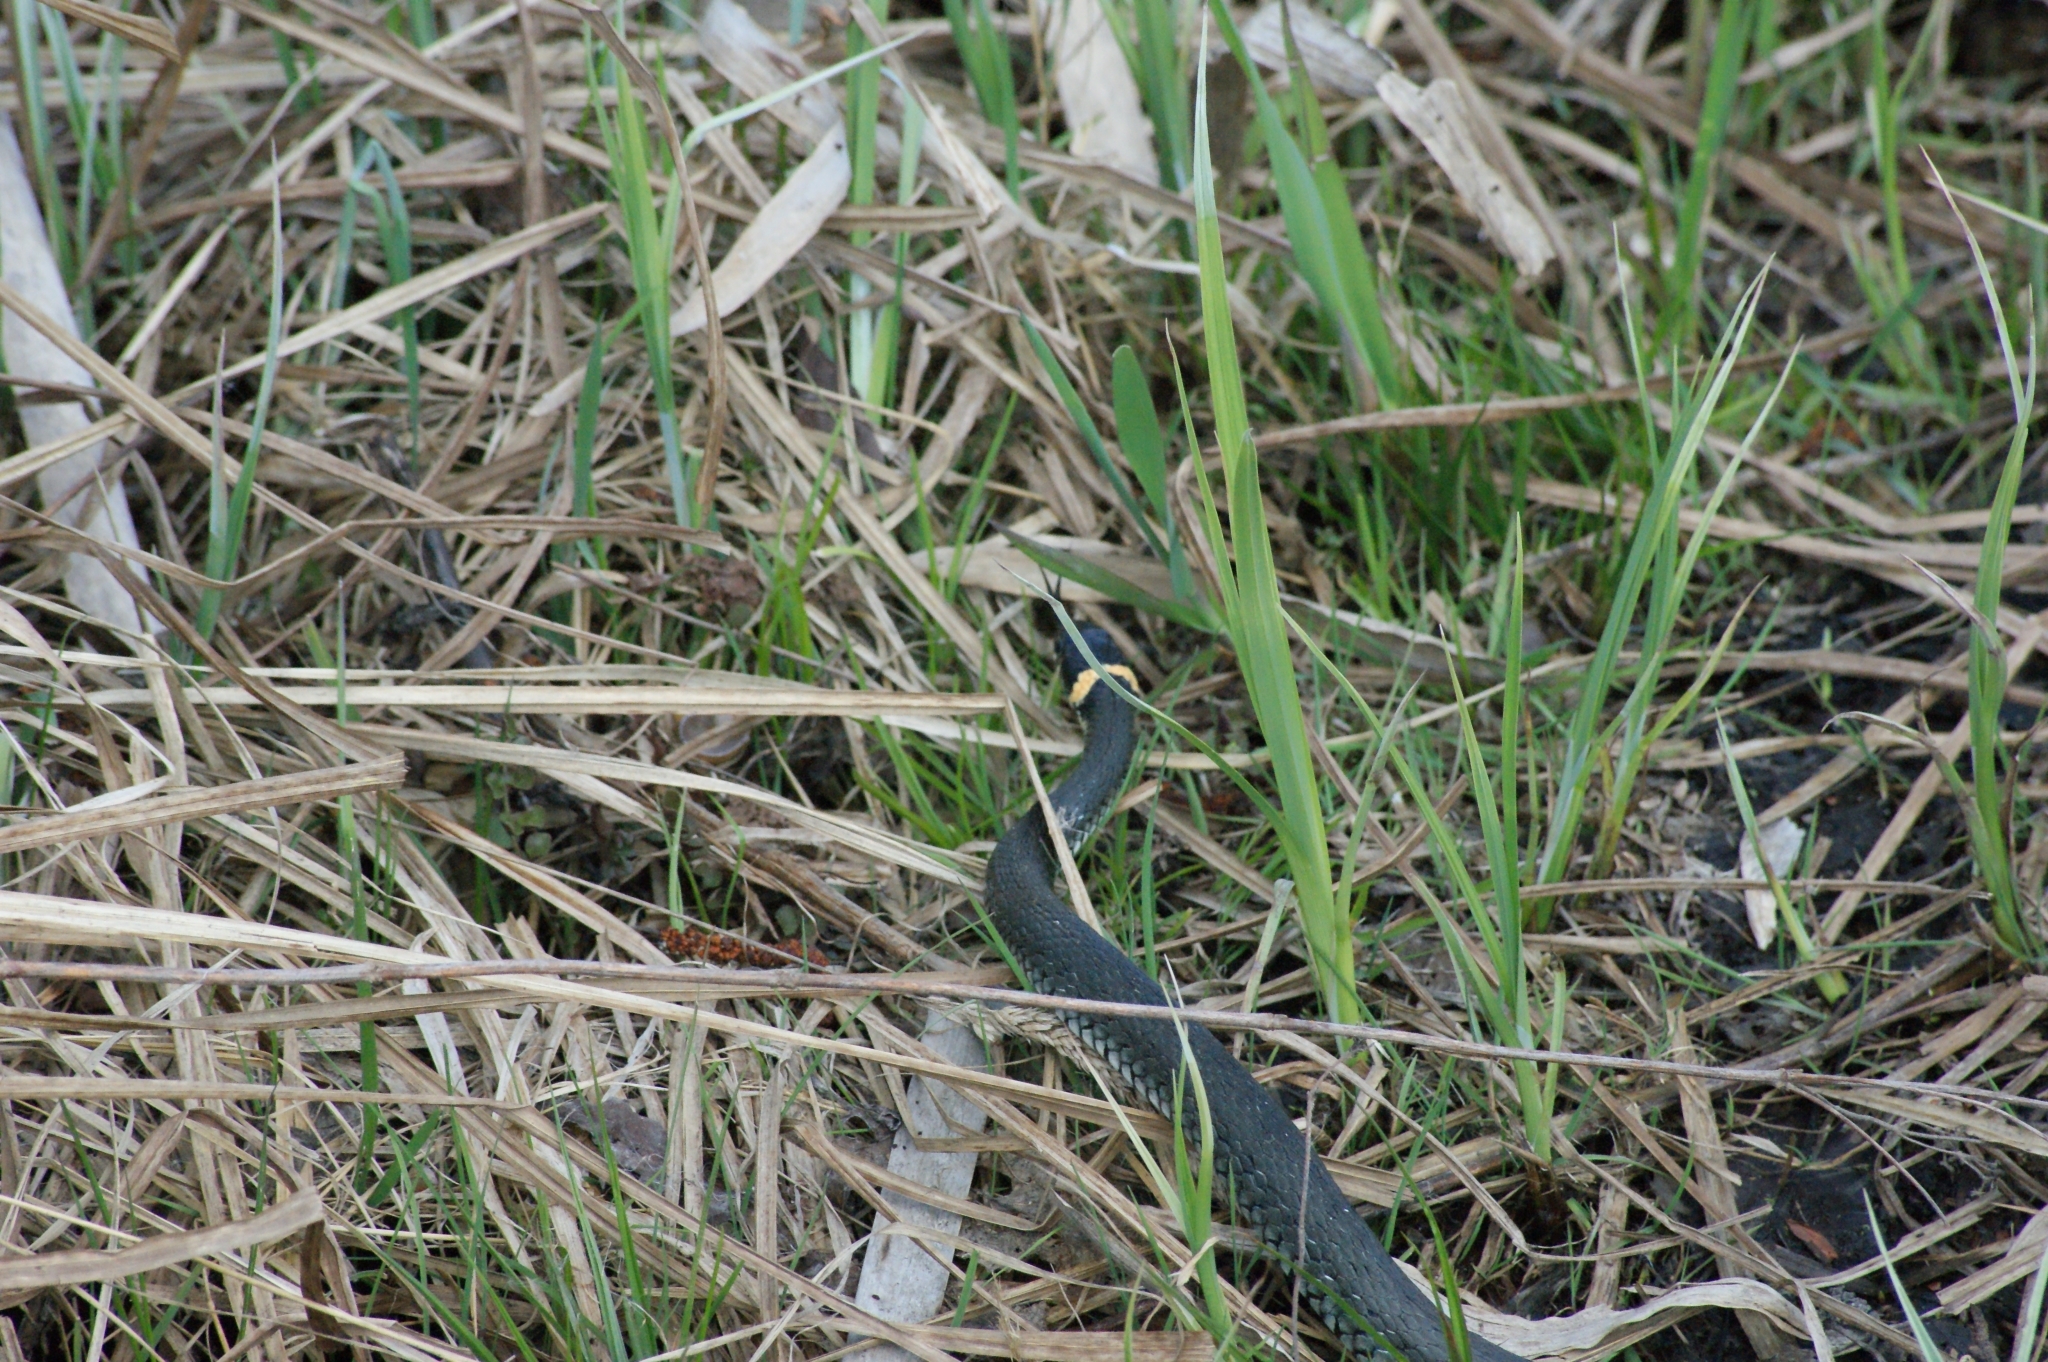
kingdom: Animalia
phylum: Chordata
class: Squamata
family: Colubridae
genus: Natrix
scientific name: Natrix natrix
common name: Grass snake
